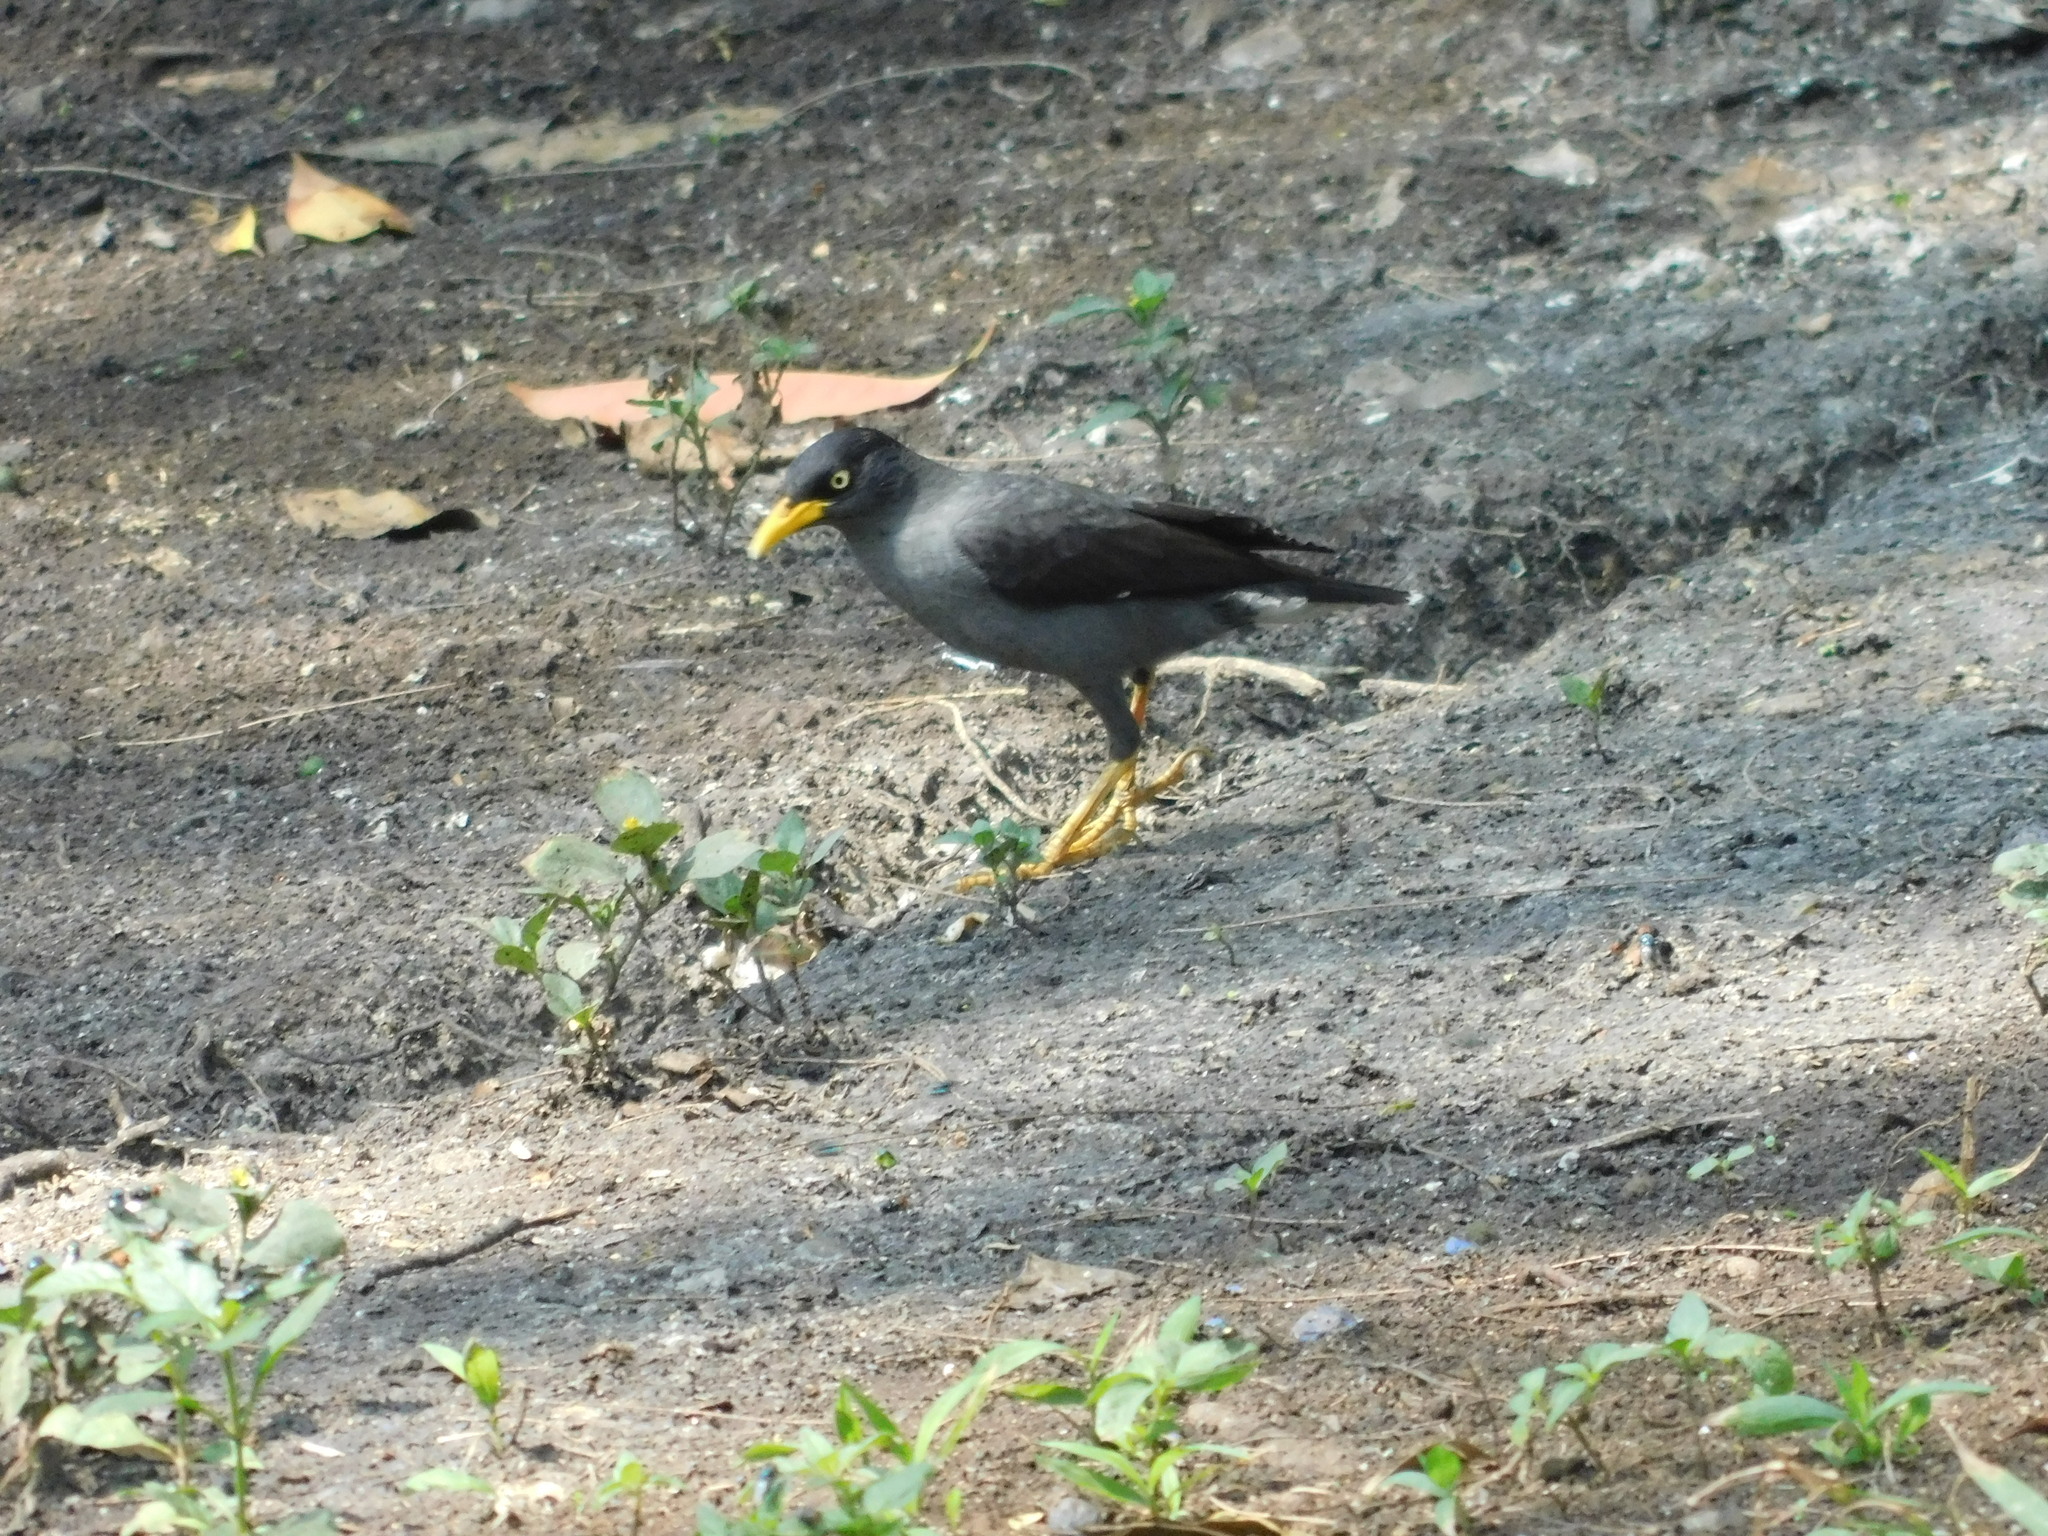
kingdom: Animalia
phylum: Chordata
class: Aves
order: Passeriformes
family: Sturnidae
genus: Acridotheres
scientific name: Acridotheres javanicus
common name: Javan myna
